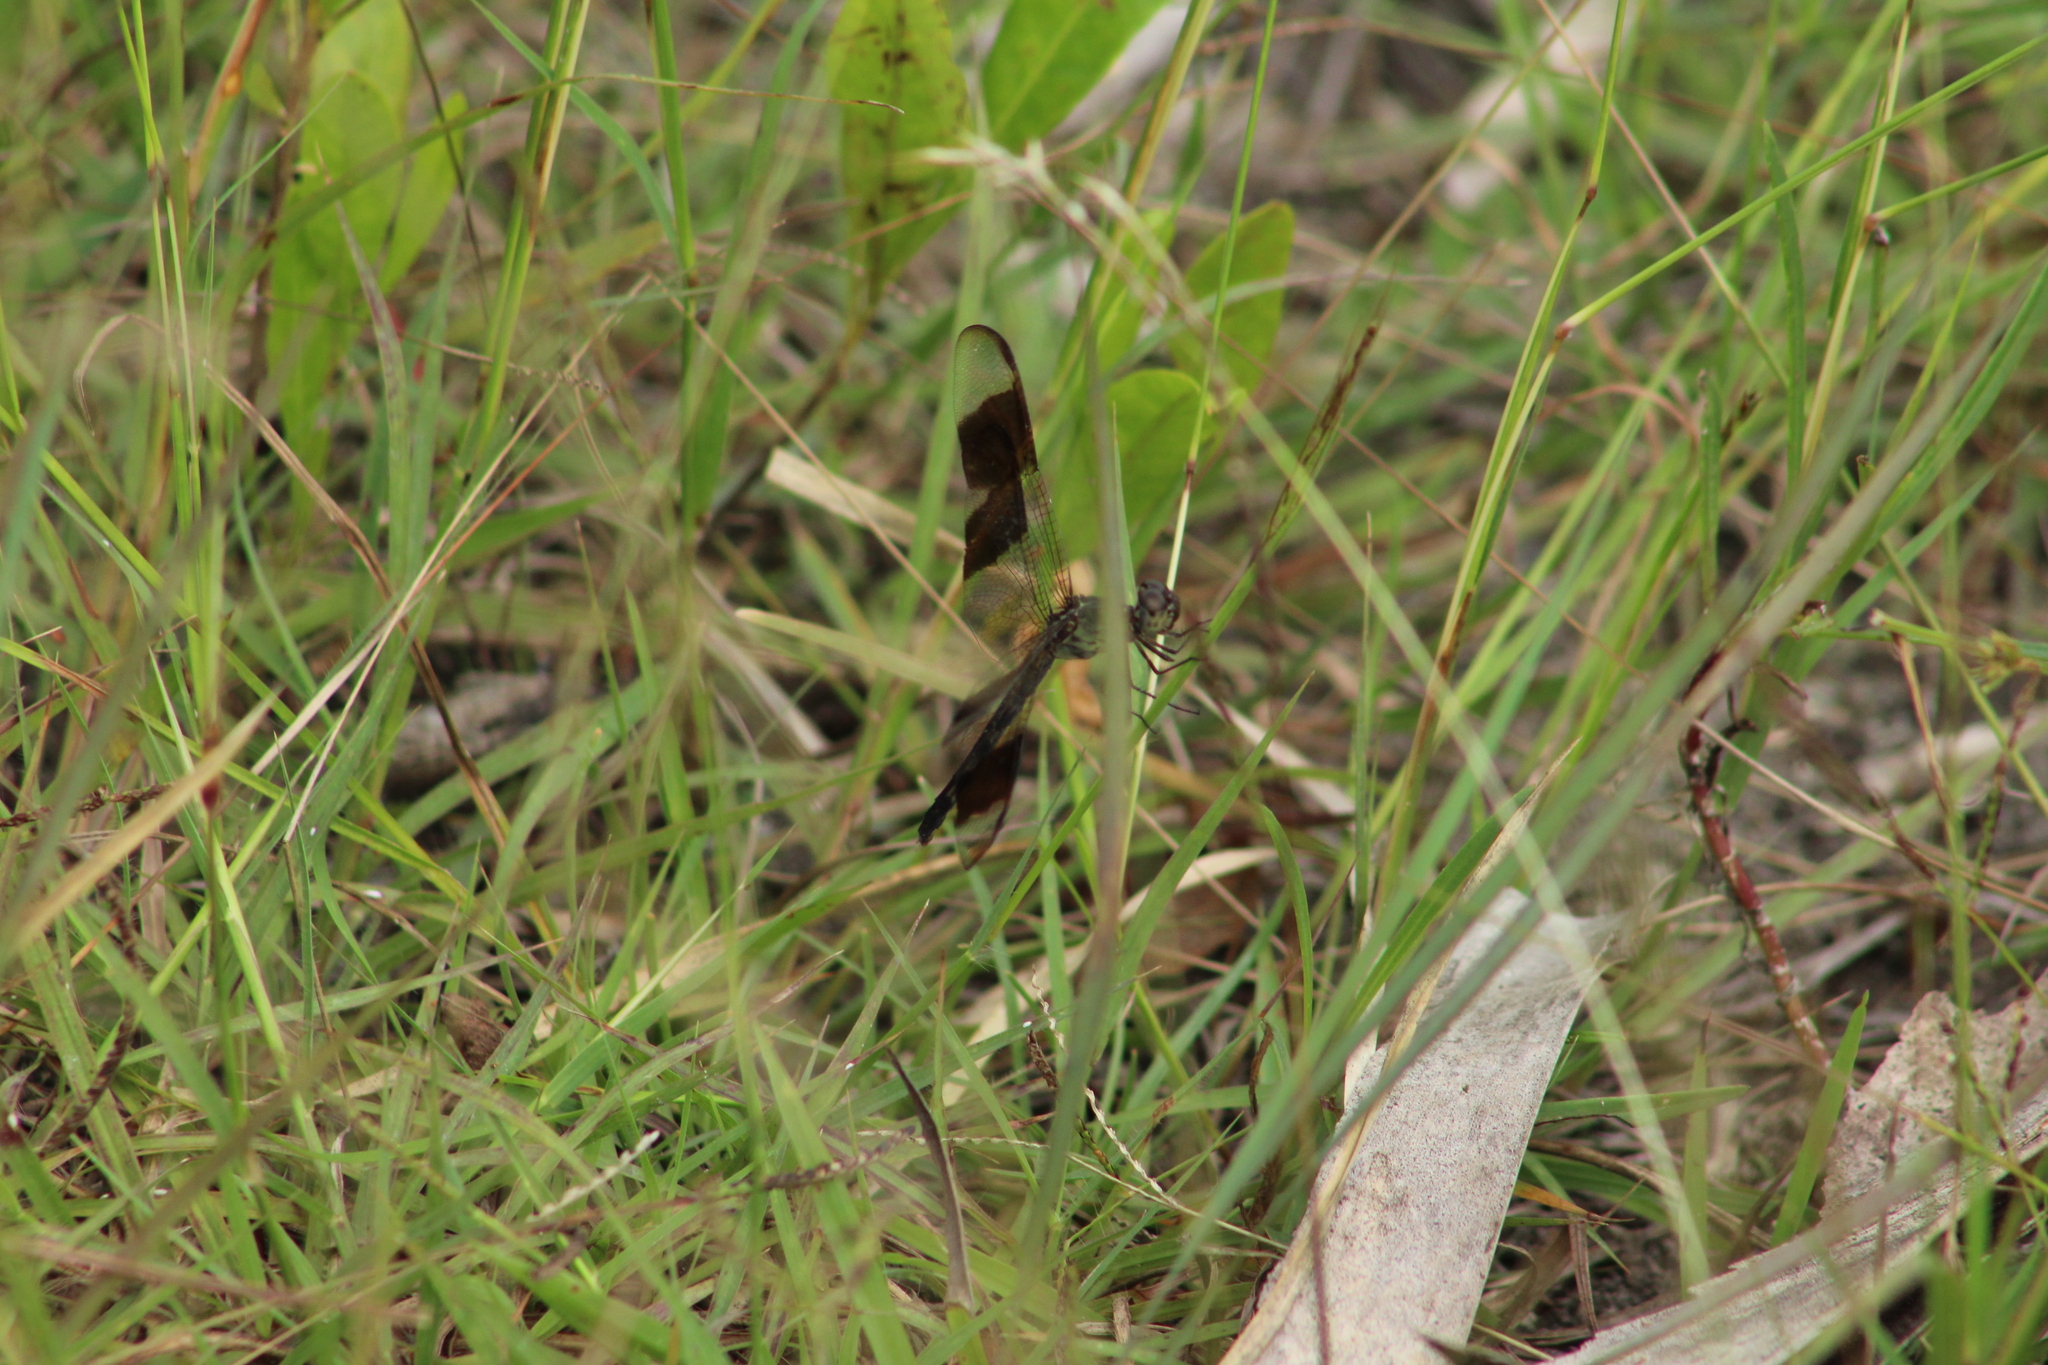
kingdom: Animalia
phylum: Arthropoda
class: Insecta
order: Odonata
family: Libellulidae
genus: Erythrodiplax
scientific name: Erythrodiplax umbrata
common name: Band-winged dragonlet
